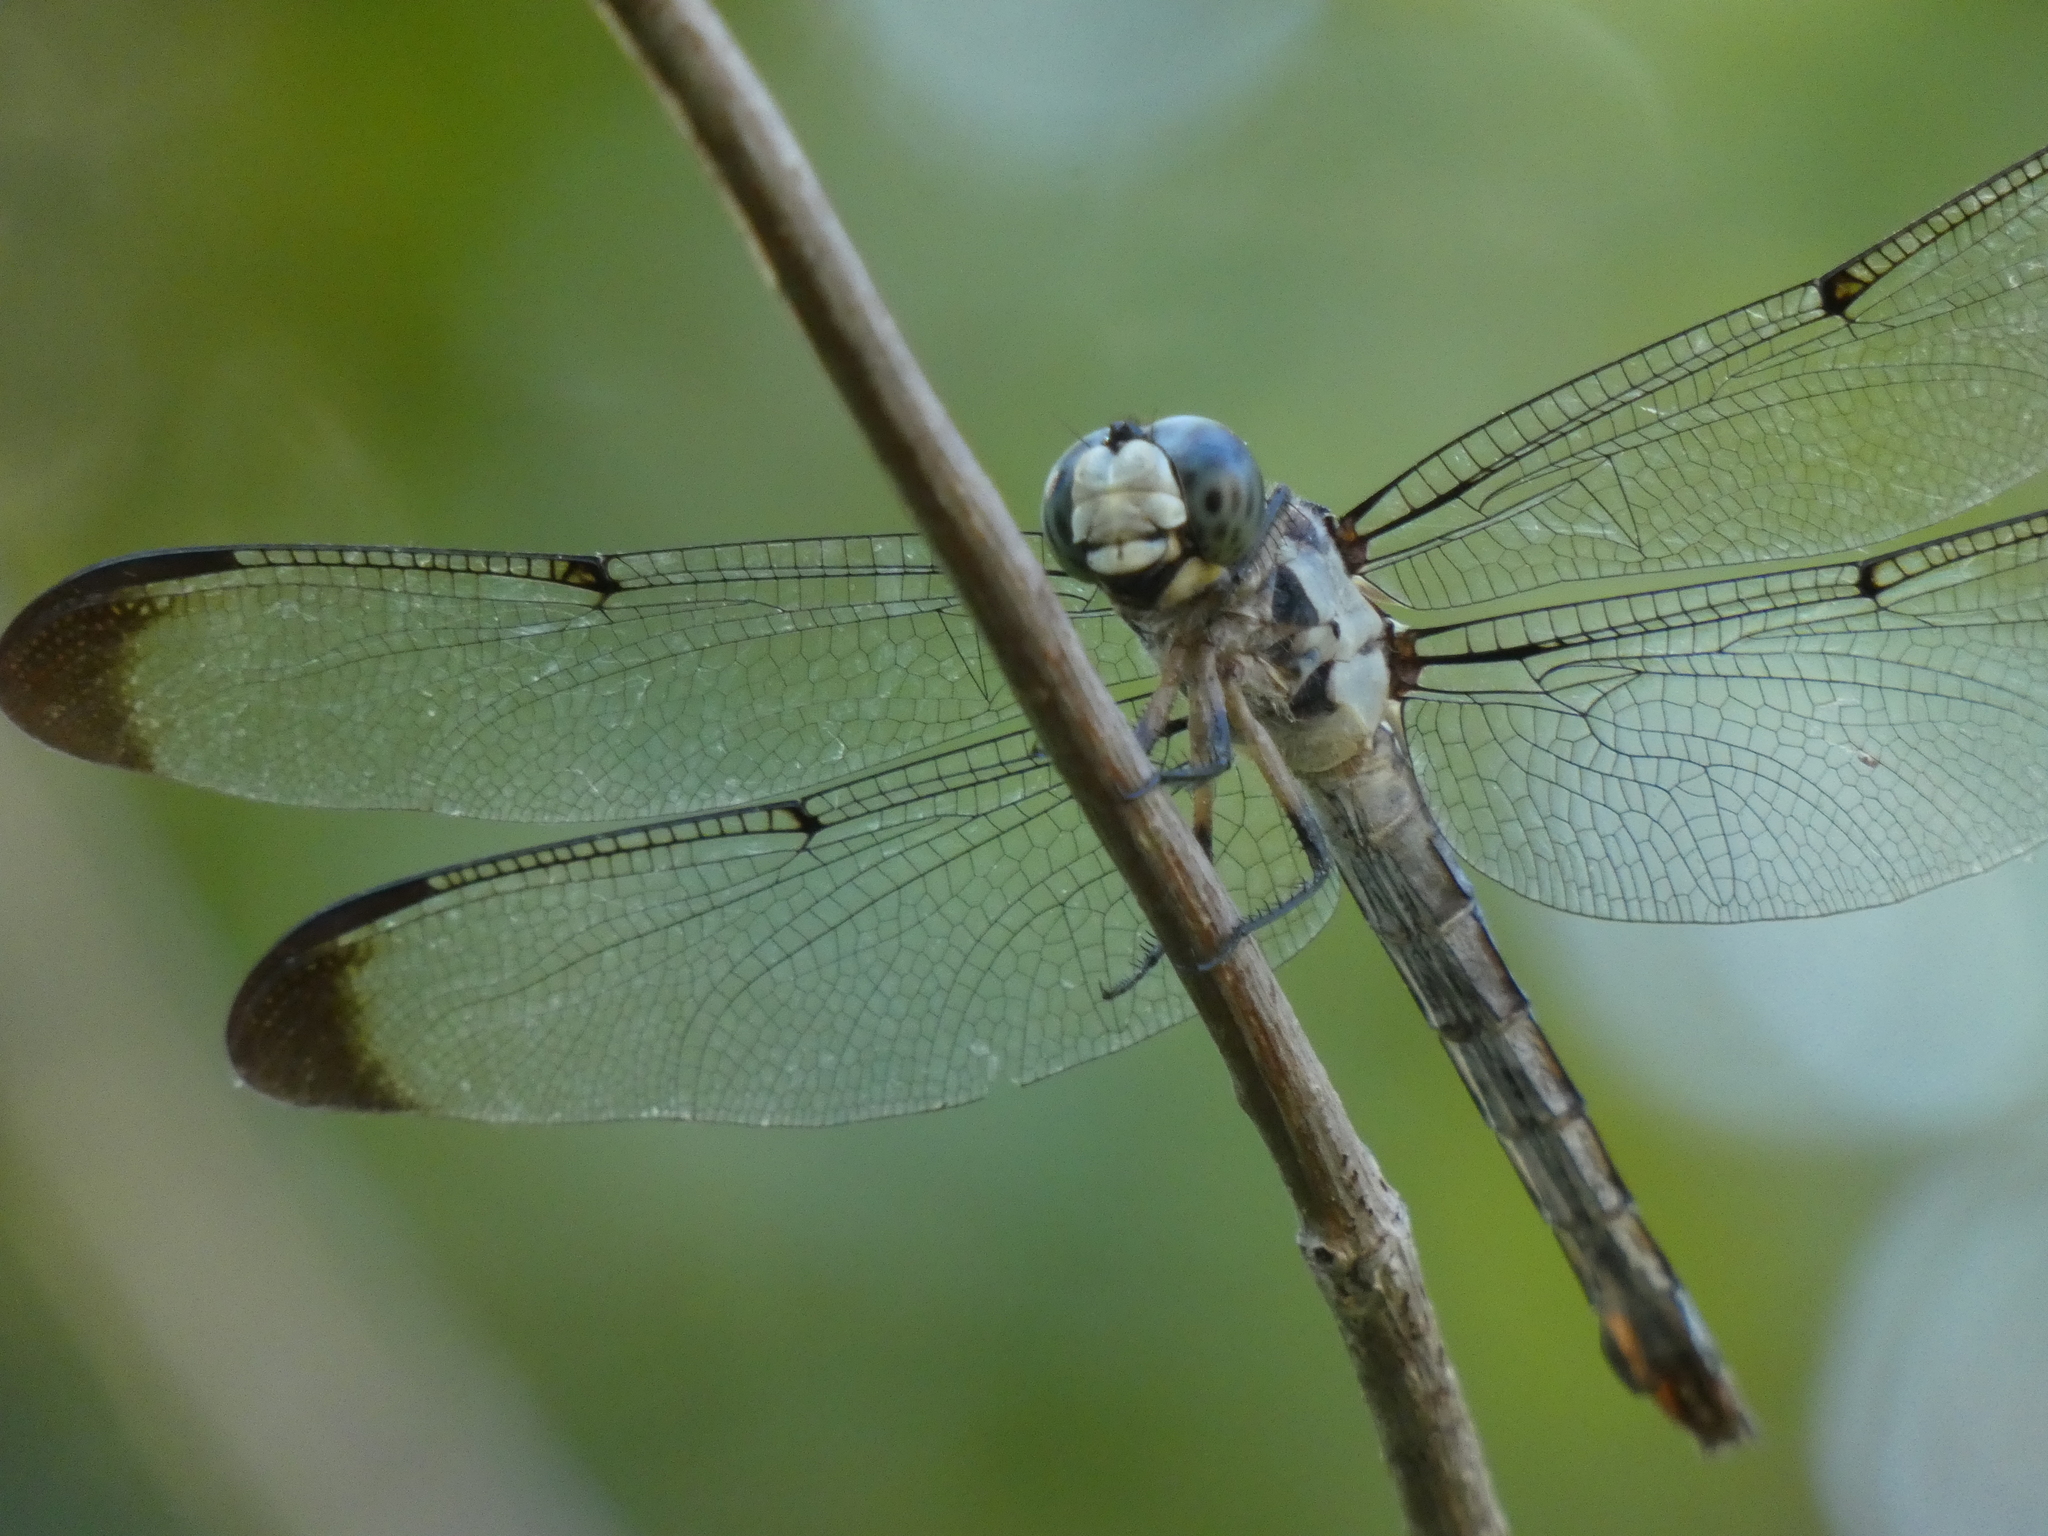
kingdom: Animalia
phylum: Arthropoda
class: Insecta
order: Odonata
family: Libellulidae
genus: Libellula
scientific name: Libellula vibrans
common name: Great blue skimmer
